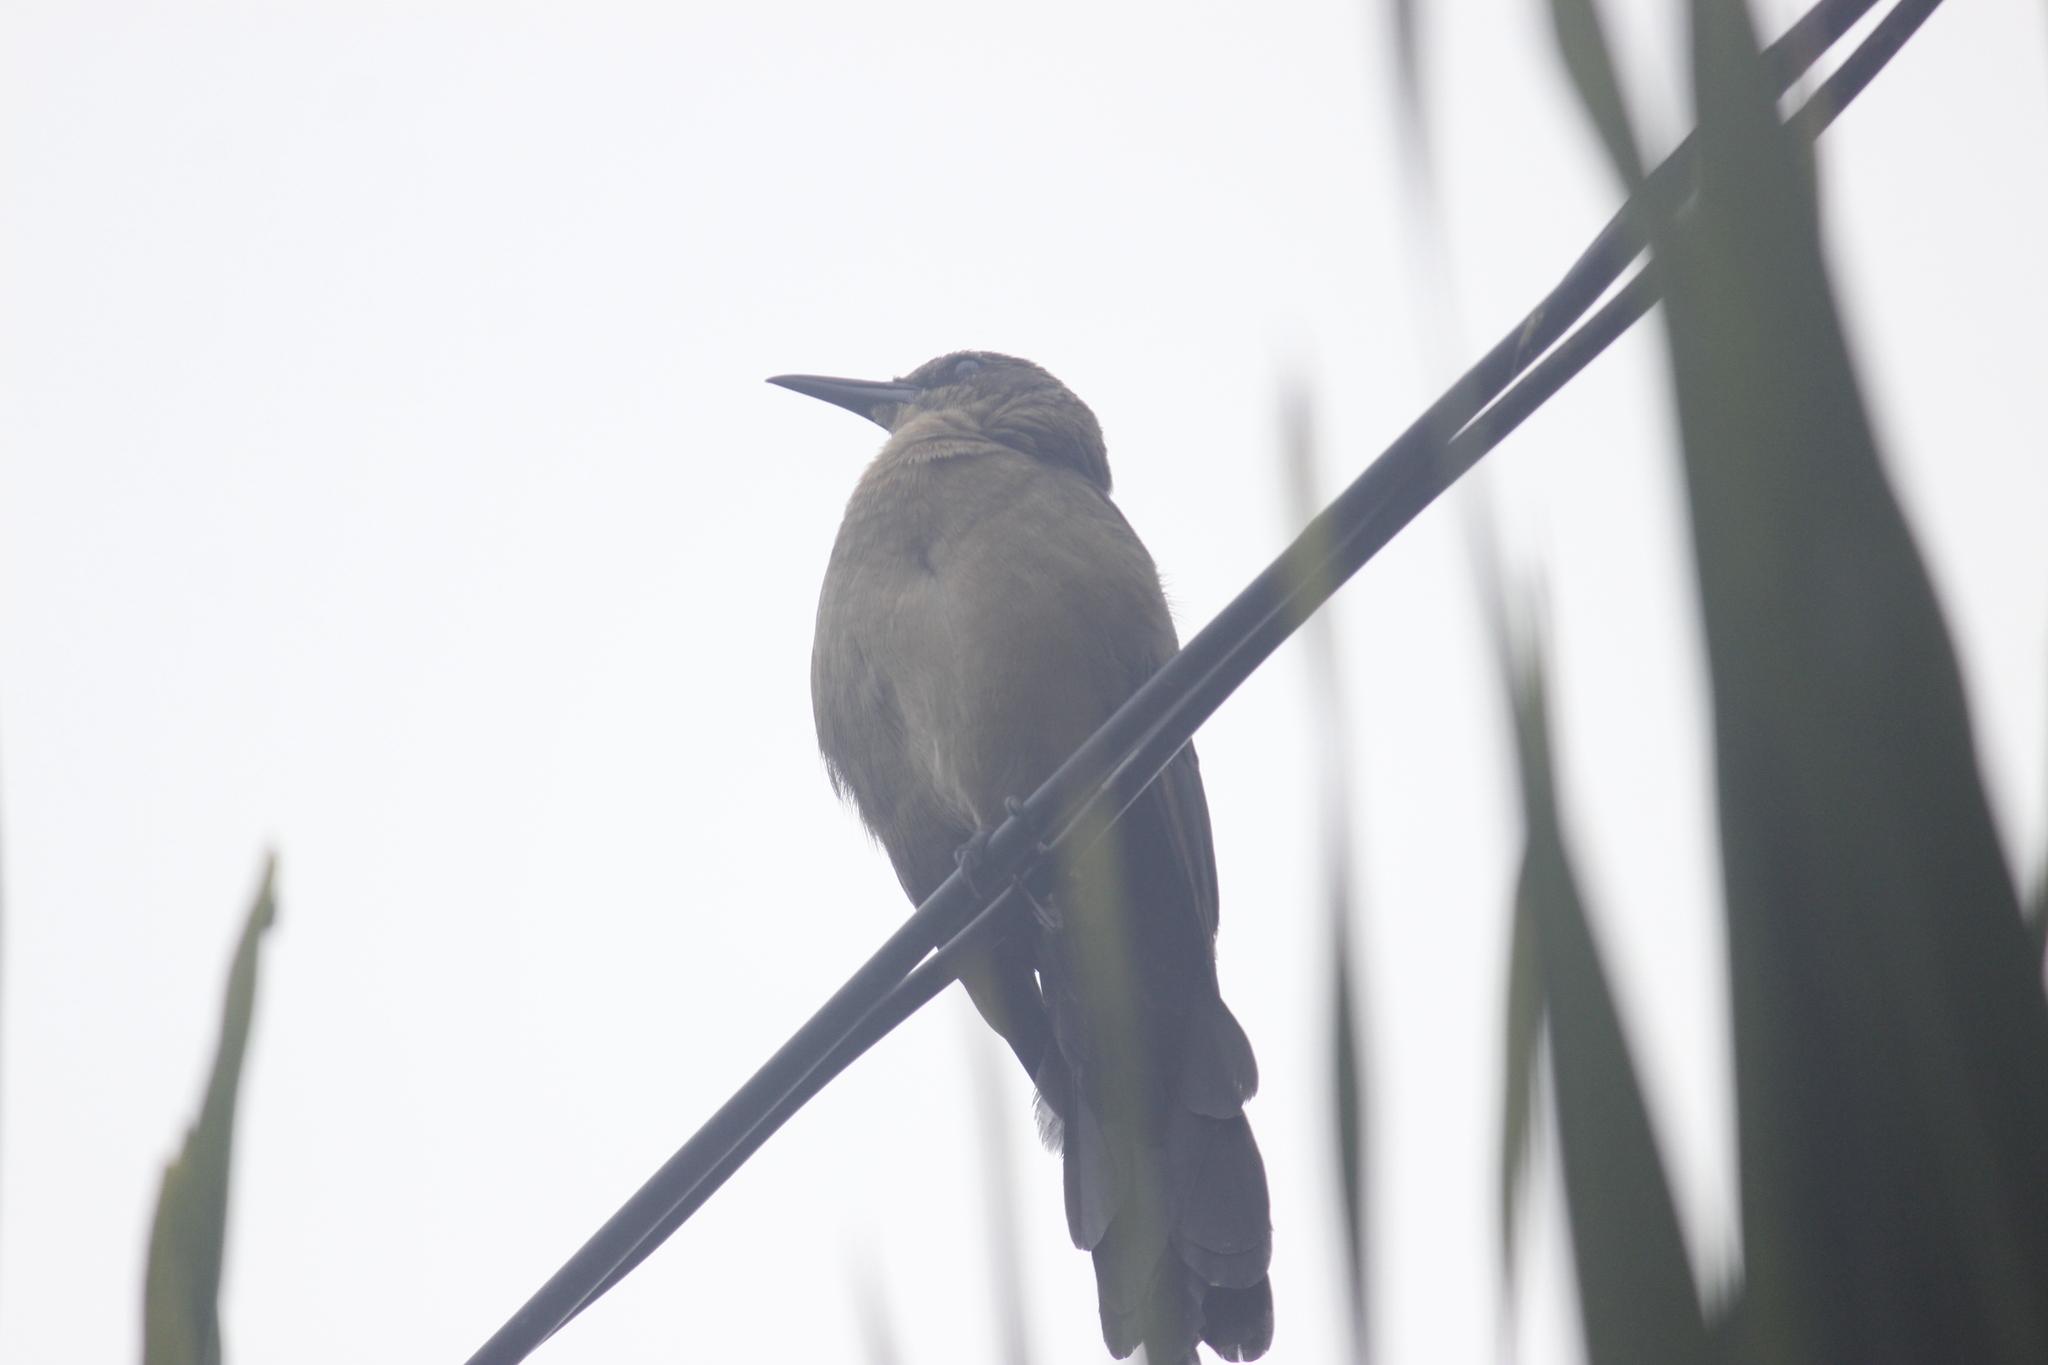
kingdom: Animalia
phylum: Chordata
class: Aves
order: Passeriformes
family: Icteridae
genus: Quiscalus
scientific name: Quiscalus mexicanus
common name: Great-tailed grackle
